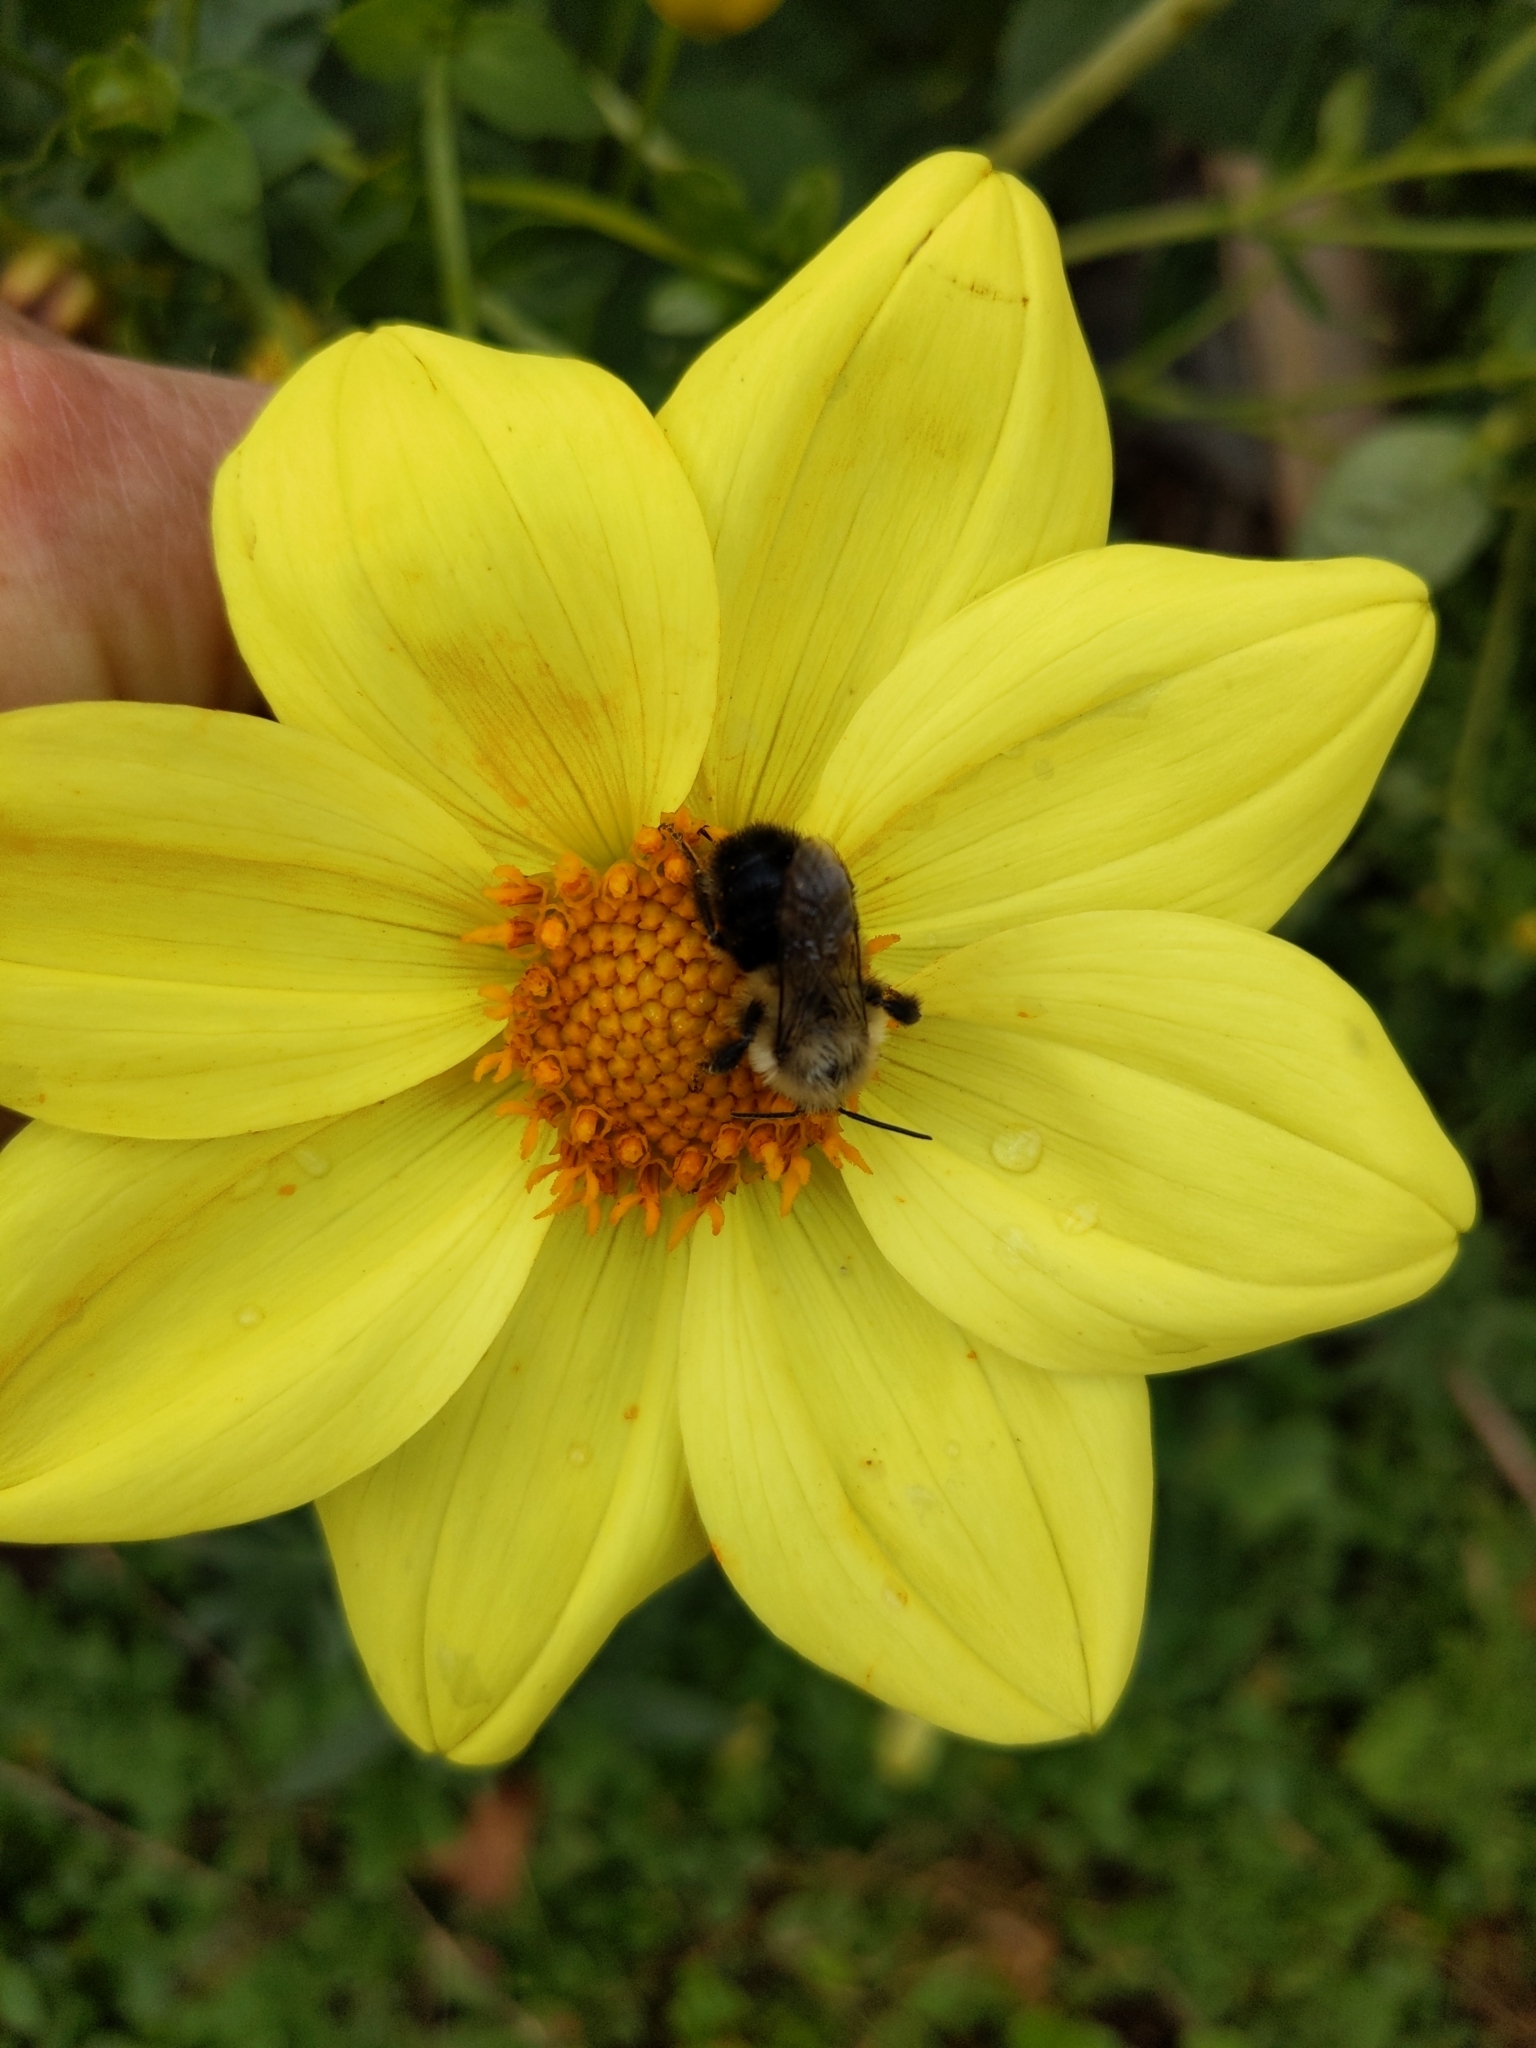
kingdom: Animalia
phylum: Arthropoda
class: Insecta
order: Hymenoptera
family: Apidae
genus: Bombus
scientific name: Bombus impatiens
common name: Common eastern bumble bee
